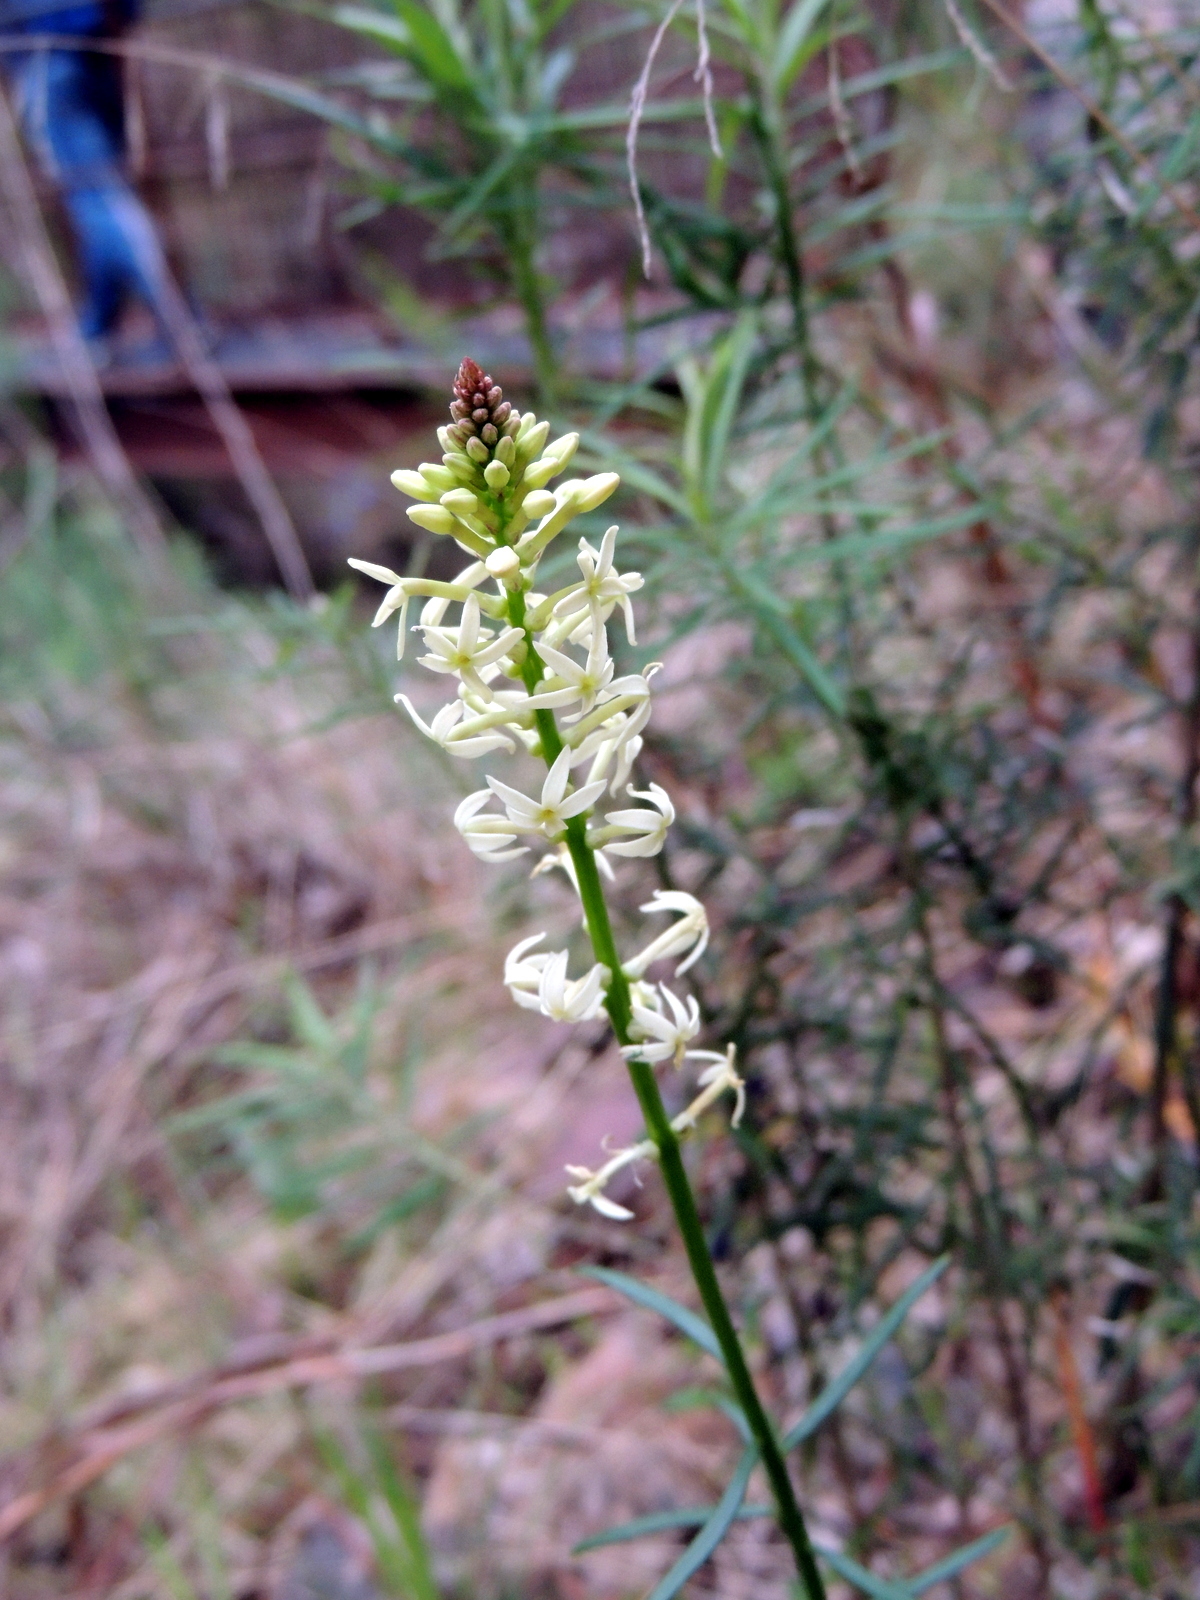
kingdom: Plantae
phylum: Tracheophyta
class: Magnoliopsida
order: Celastrales
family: Celastraceae
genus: Stackhousia
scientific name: Stackhousia monogyna
